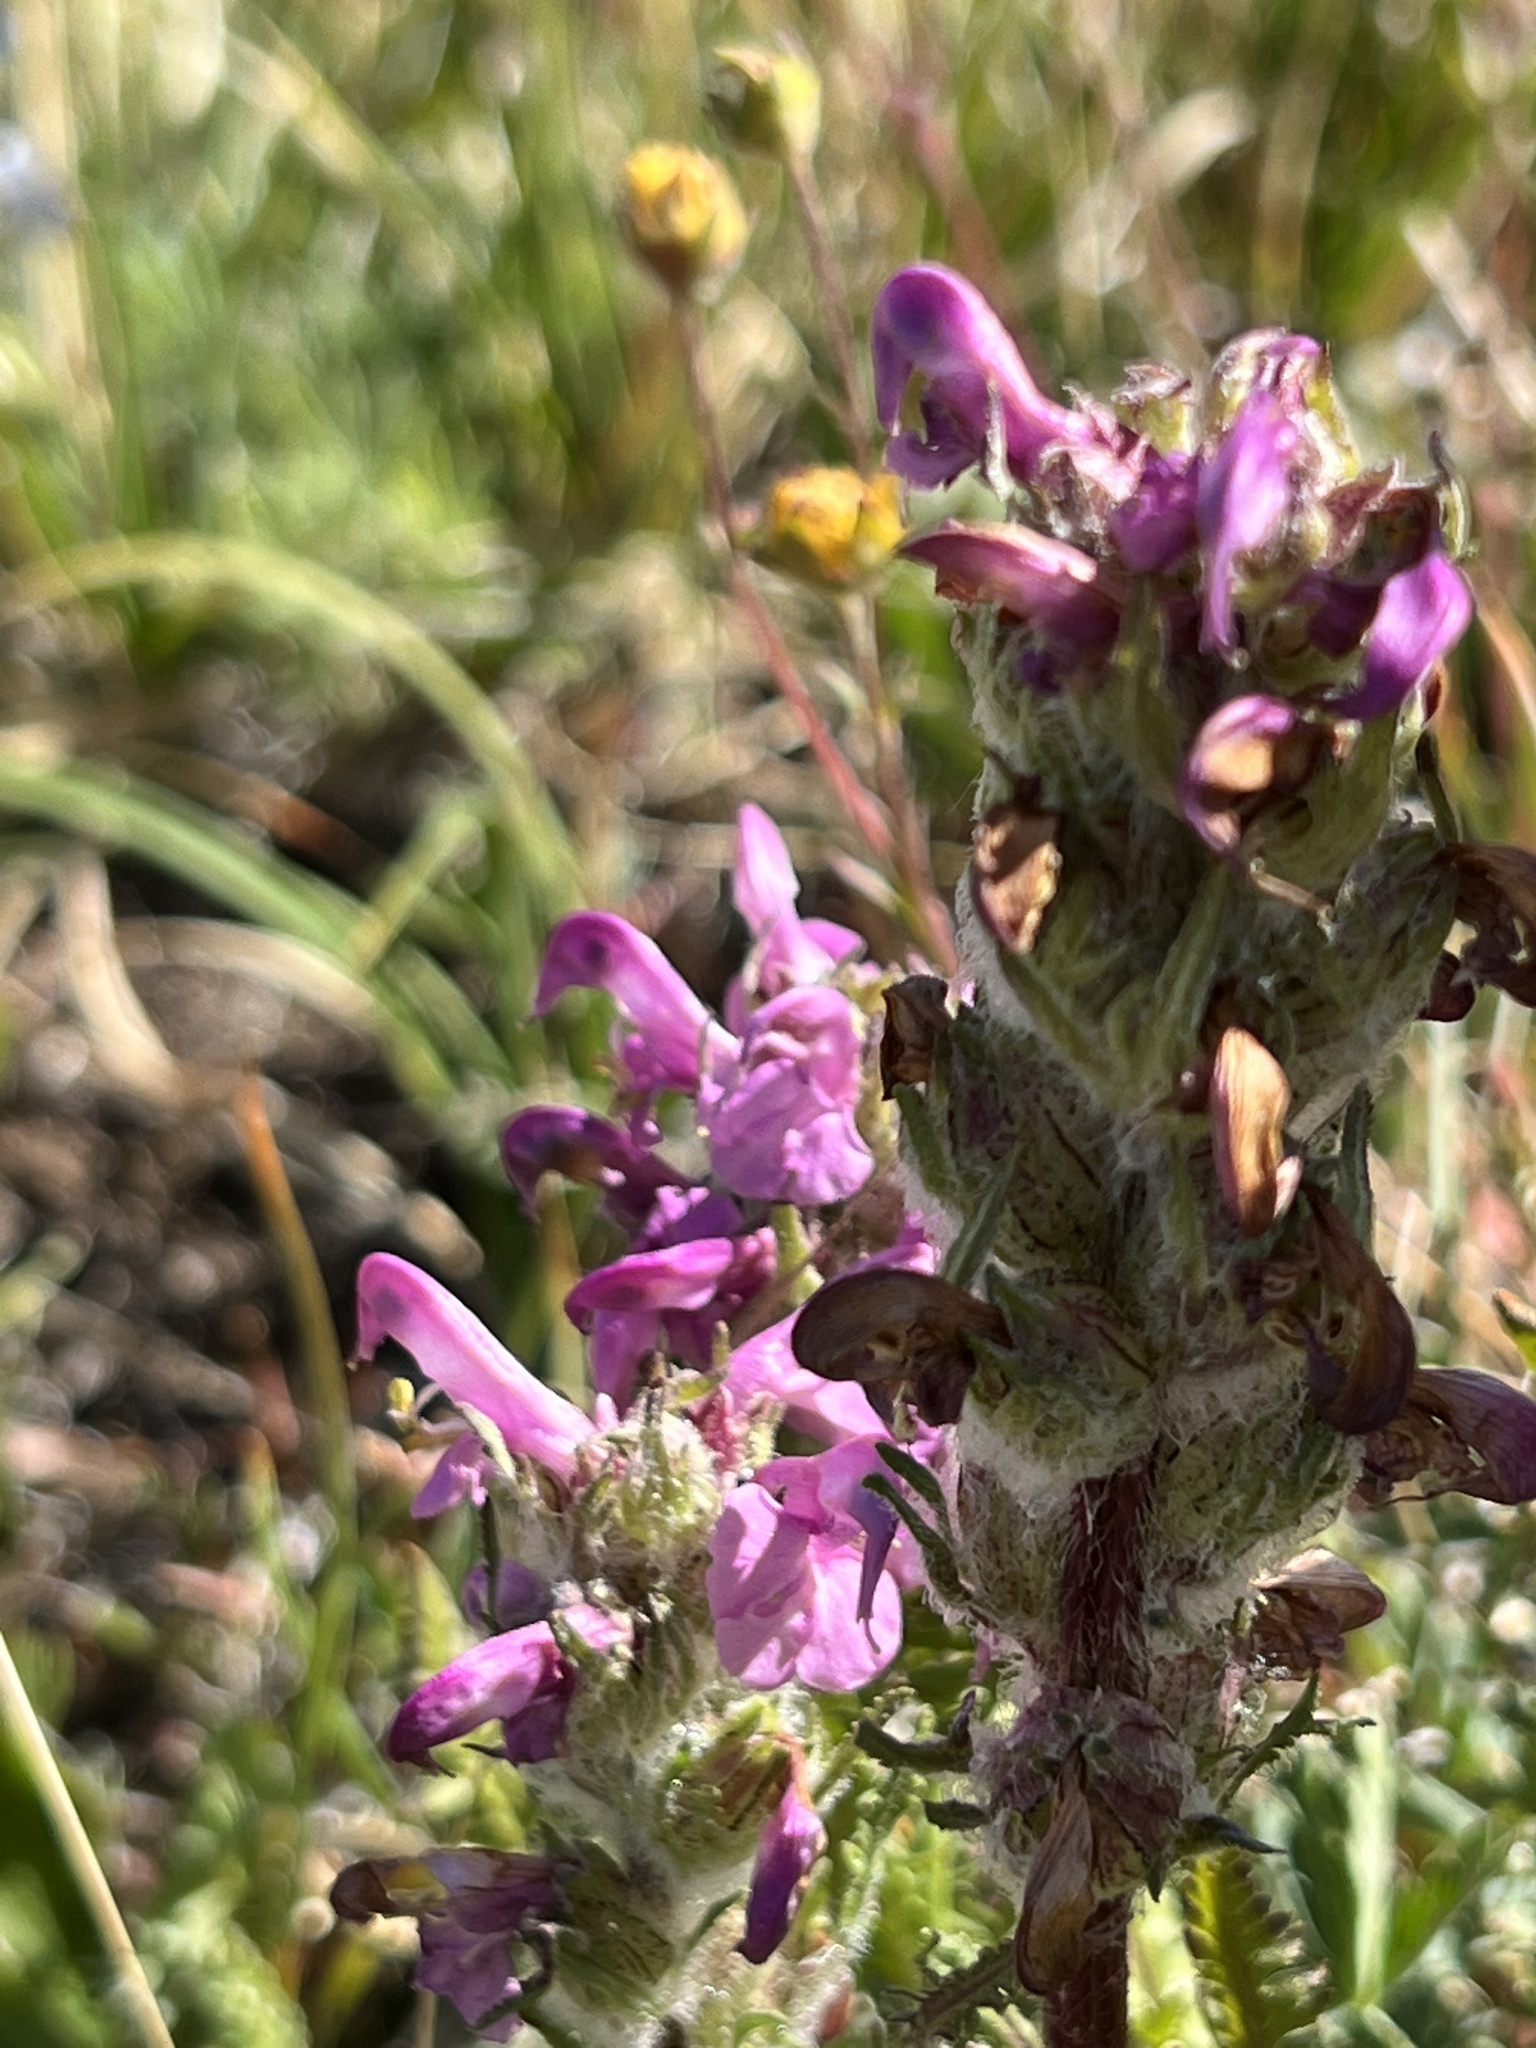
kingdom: Plantae
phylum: Tracheophyta
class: Magnoliopsida
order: Lamiales
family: Orobanchaceae
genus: Pedicularis
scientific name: Pedicularis parryi
